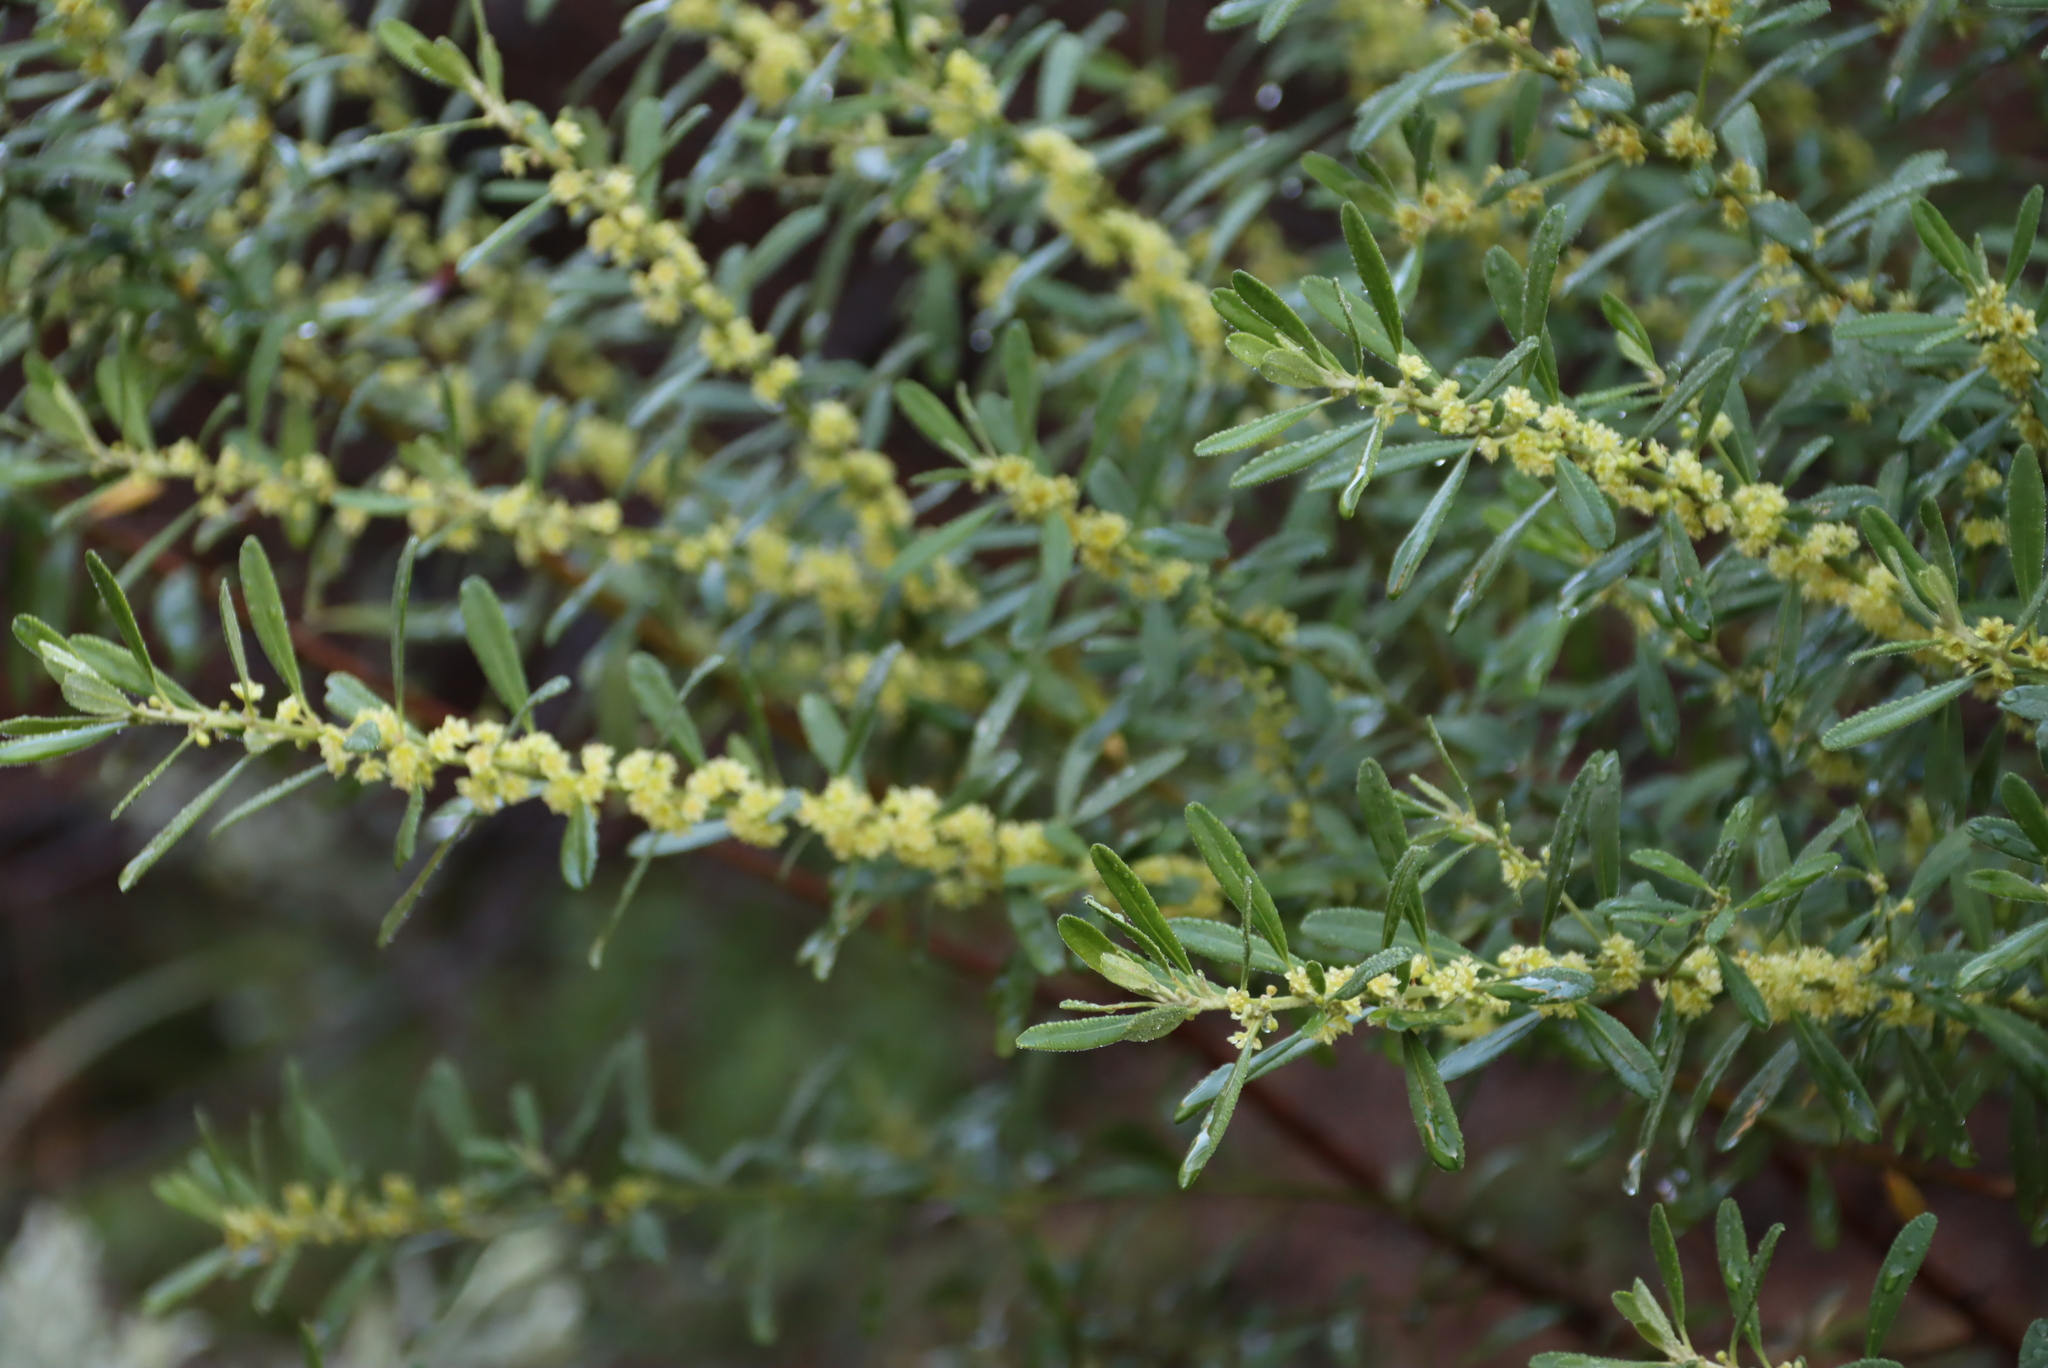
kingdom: Plantae
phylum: Tracheophyta
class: Magnoliopsida
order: Malpighiales
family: Peraceae
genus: Clutia
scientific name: Clutia daphnoides
